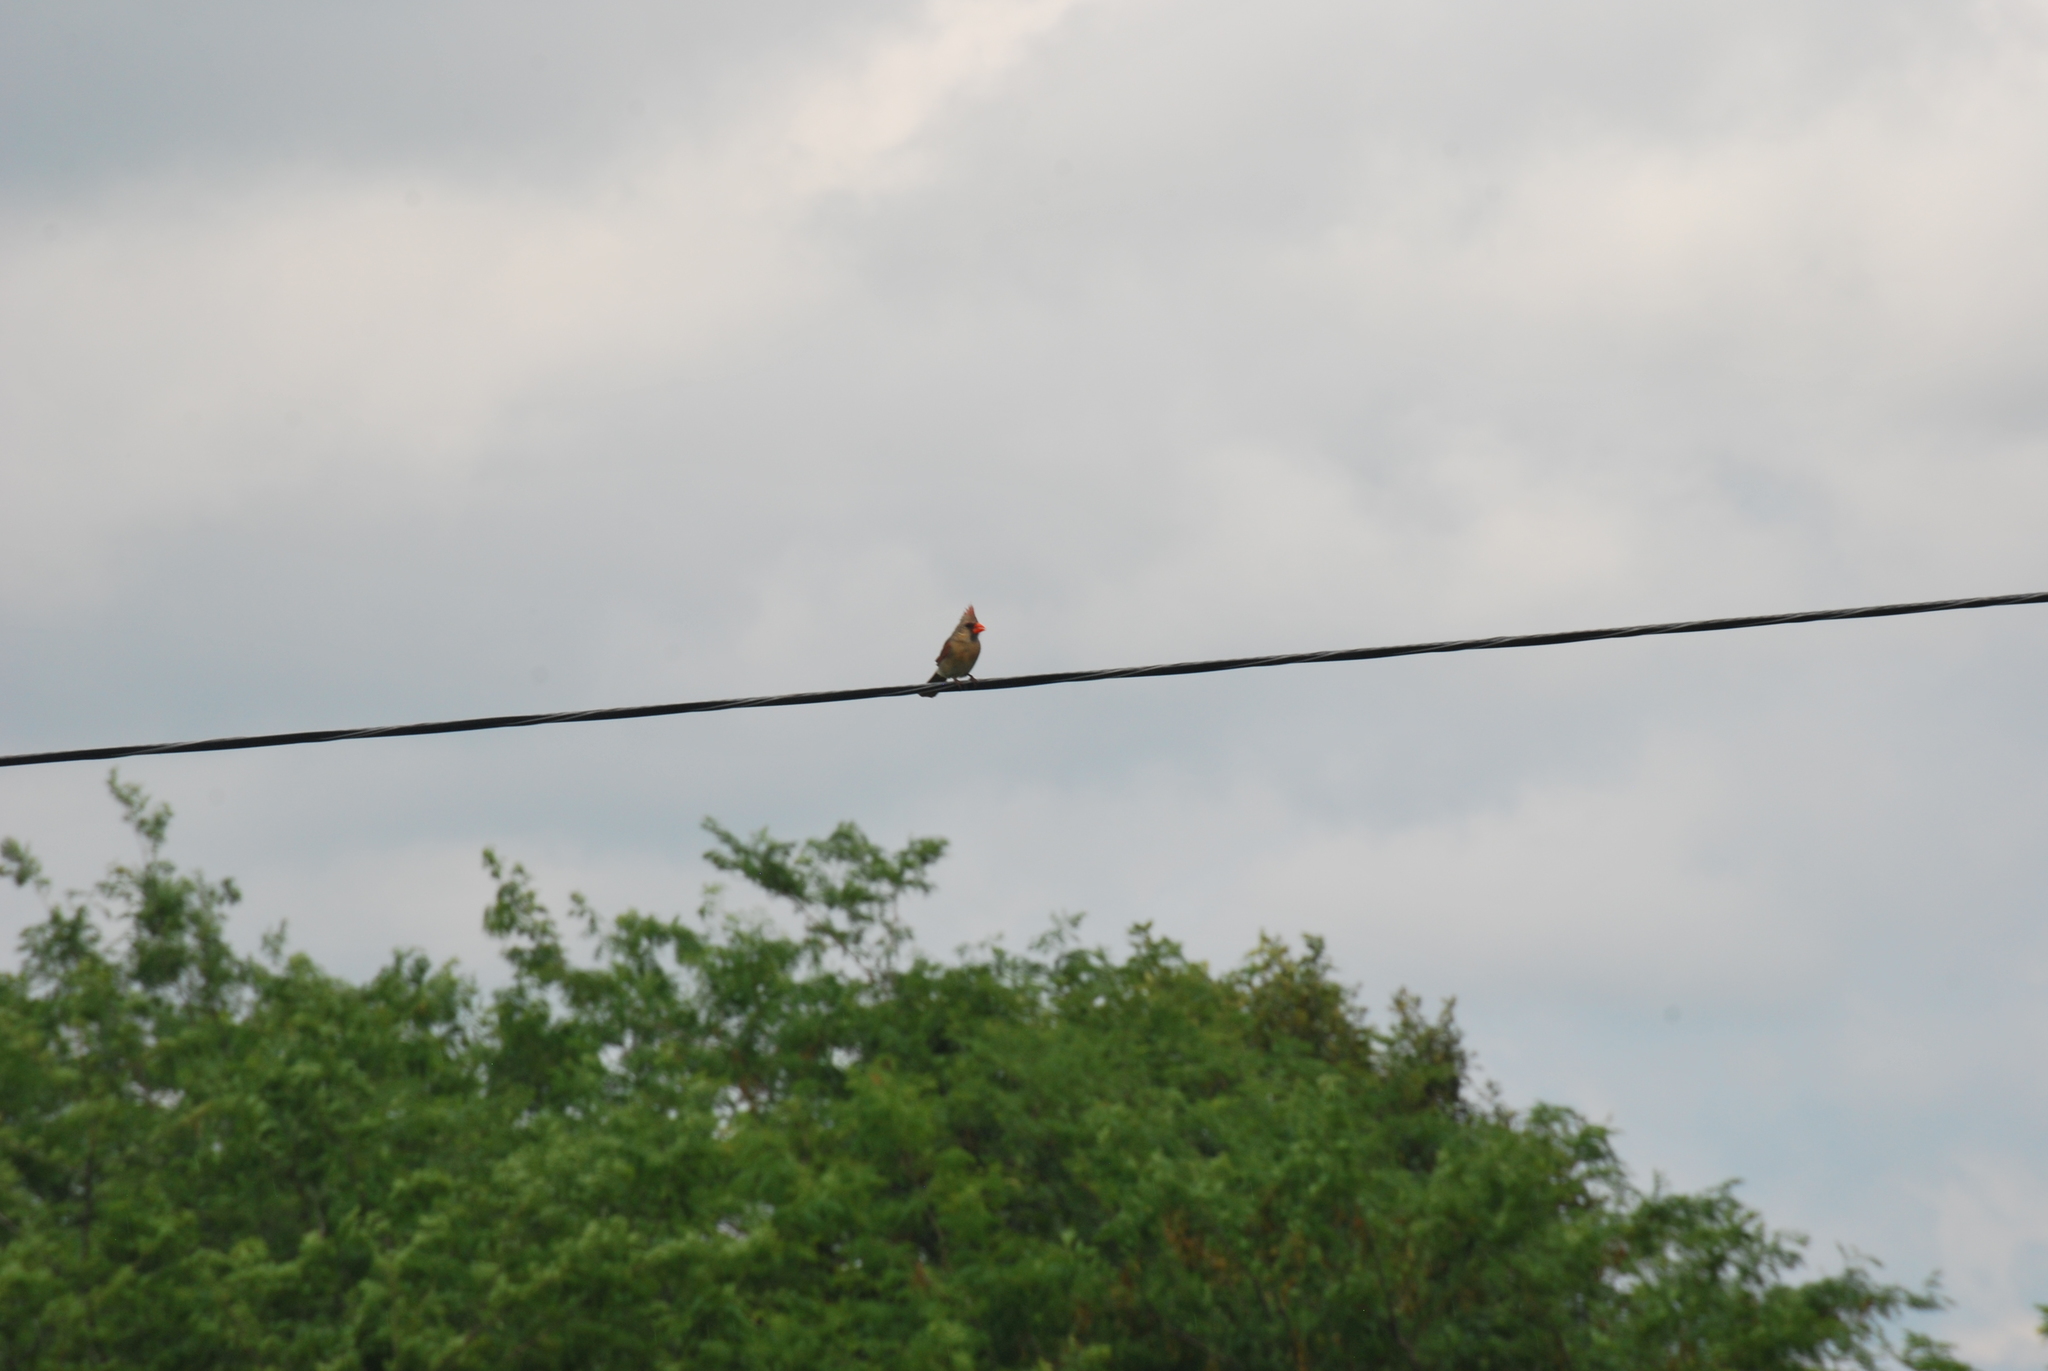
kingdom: Animalia
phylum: Chordata
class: Aves
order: Passeriformes
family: Cardinalidae
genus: Cardinalis
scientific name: Cardinalis cardinalis
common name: Northern cardinal
